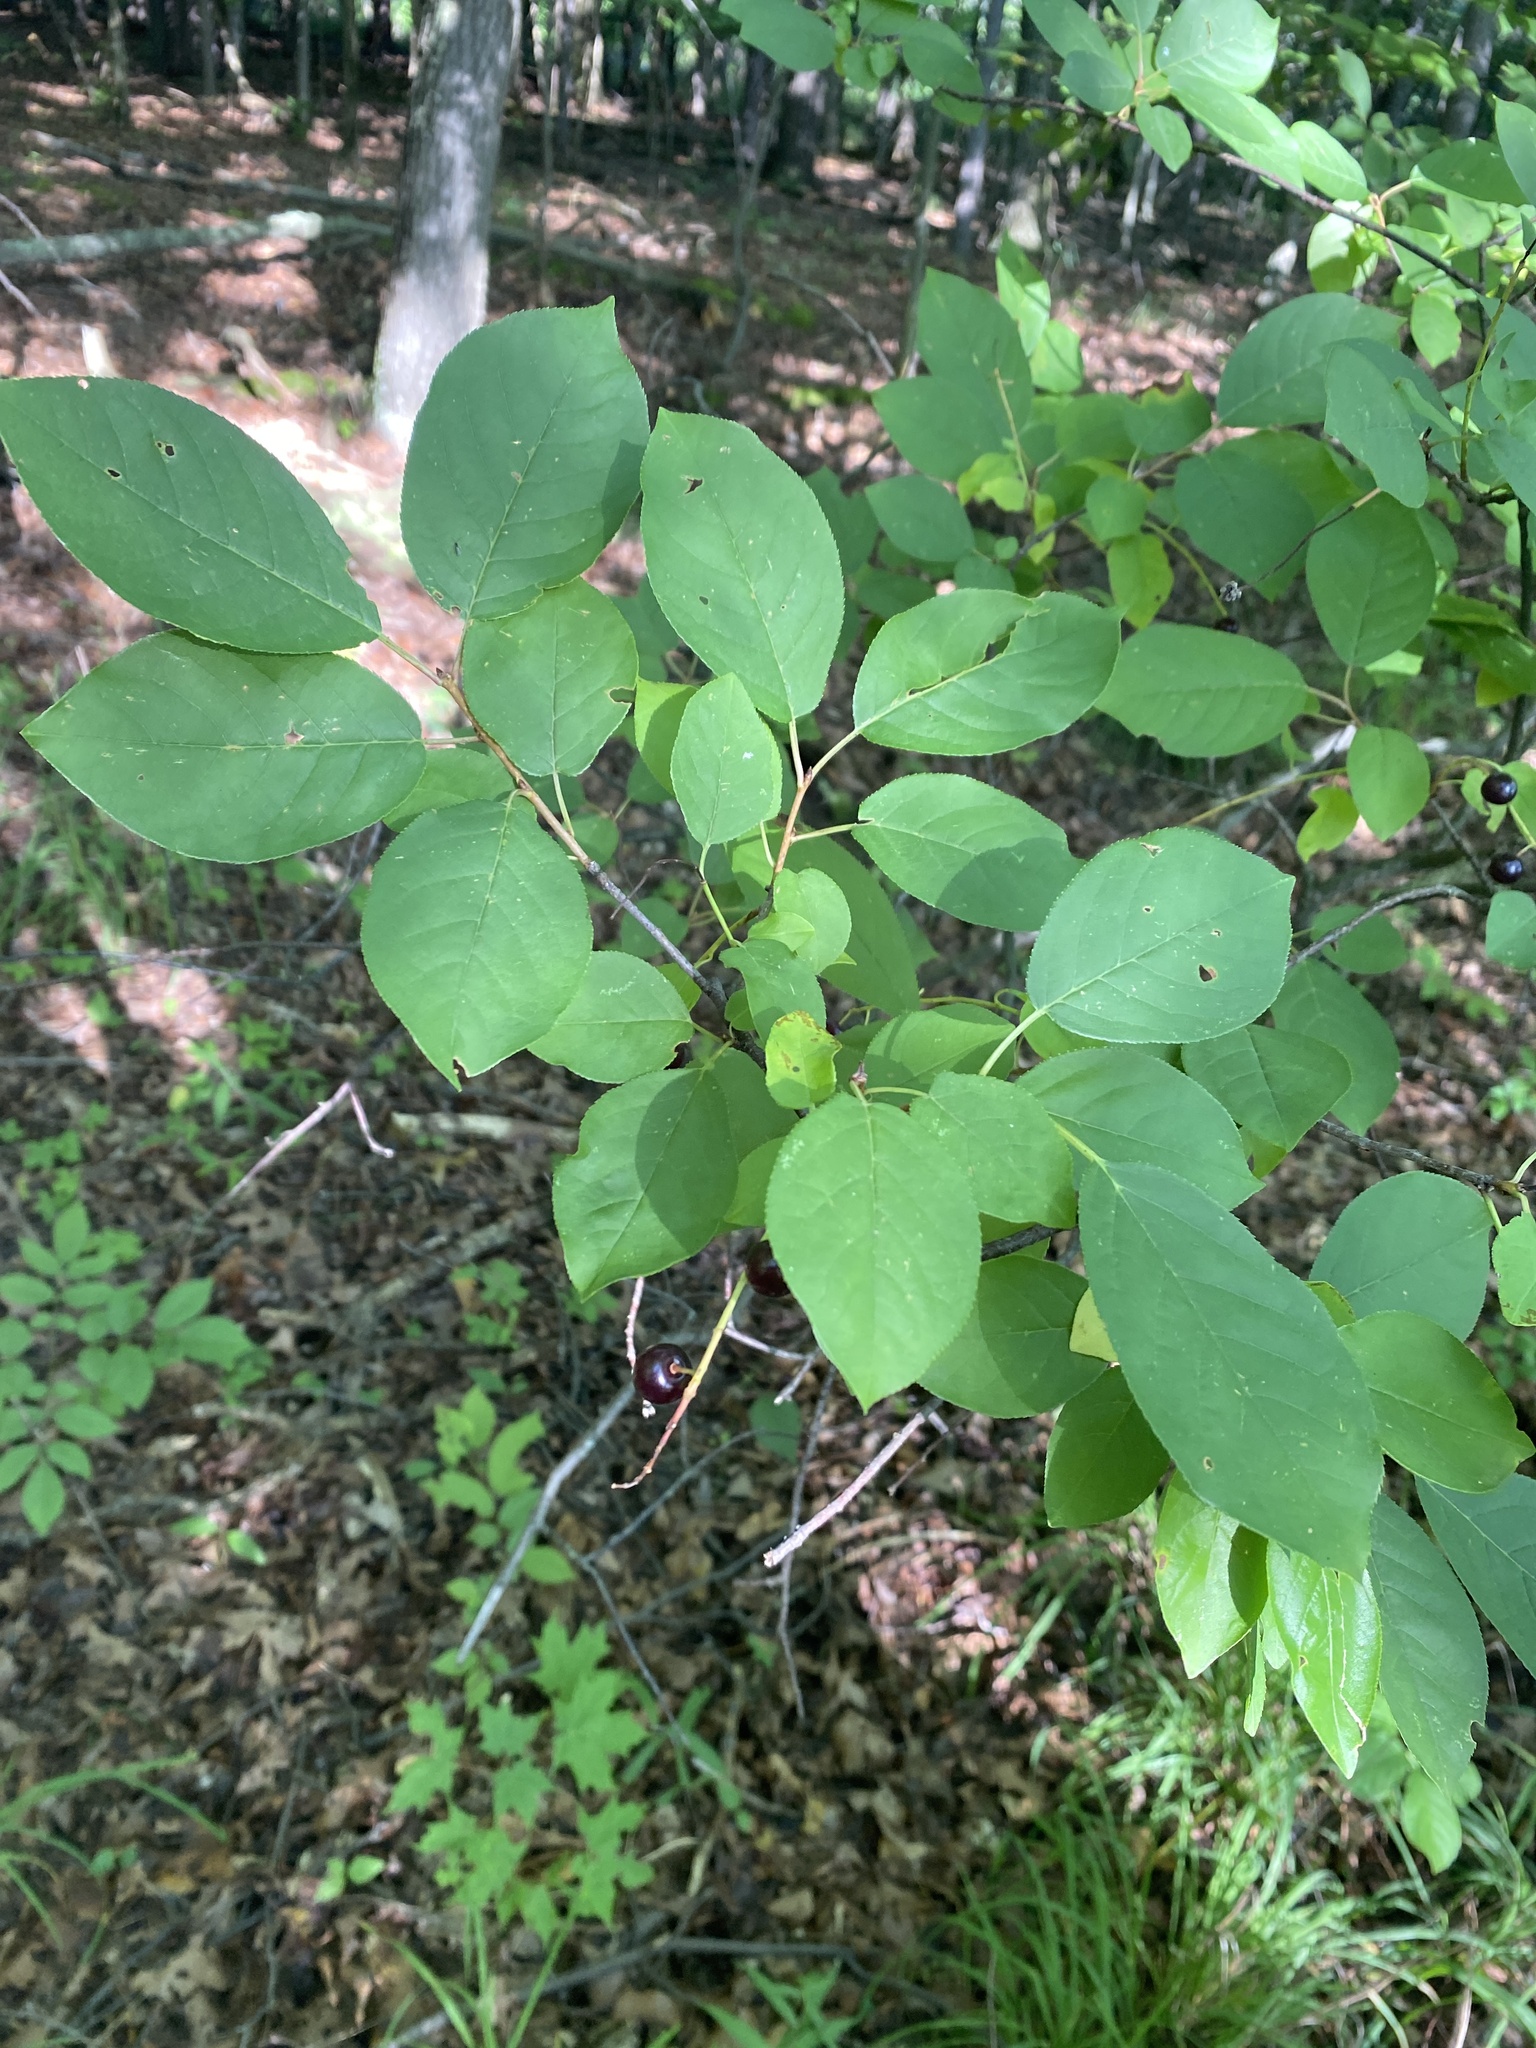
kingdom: Plantae
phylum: Tracheophyta
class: Magnoliopsida
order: Rosales
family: Rosaceae
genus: Prunus
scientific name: Prunus virginiana
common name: Chokecherry
